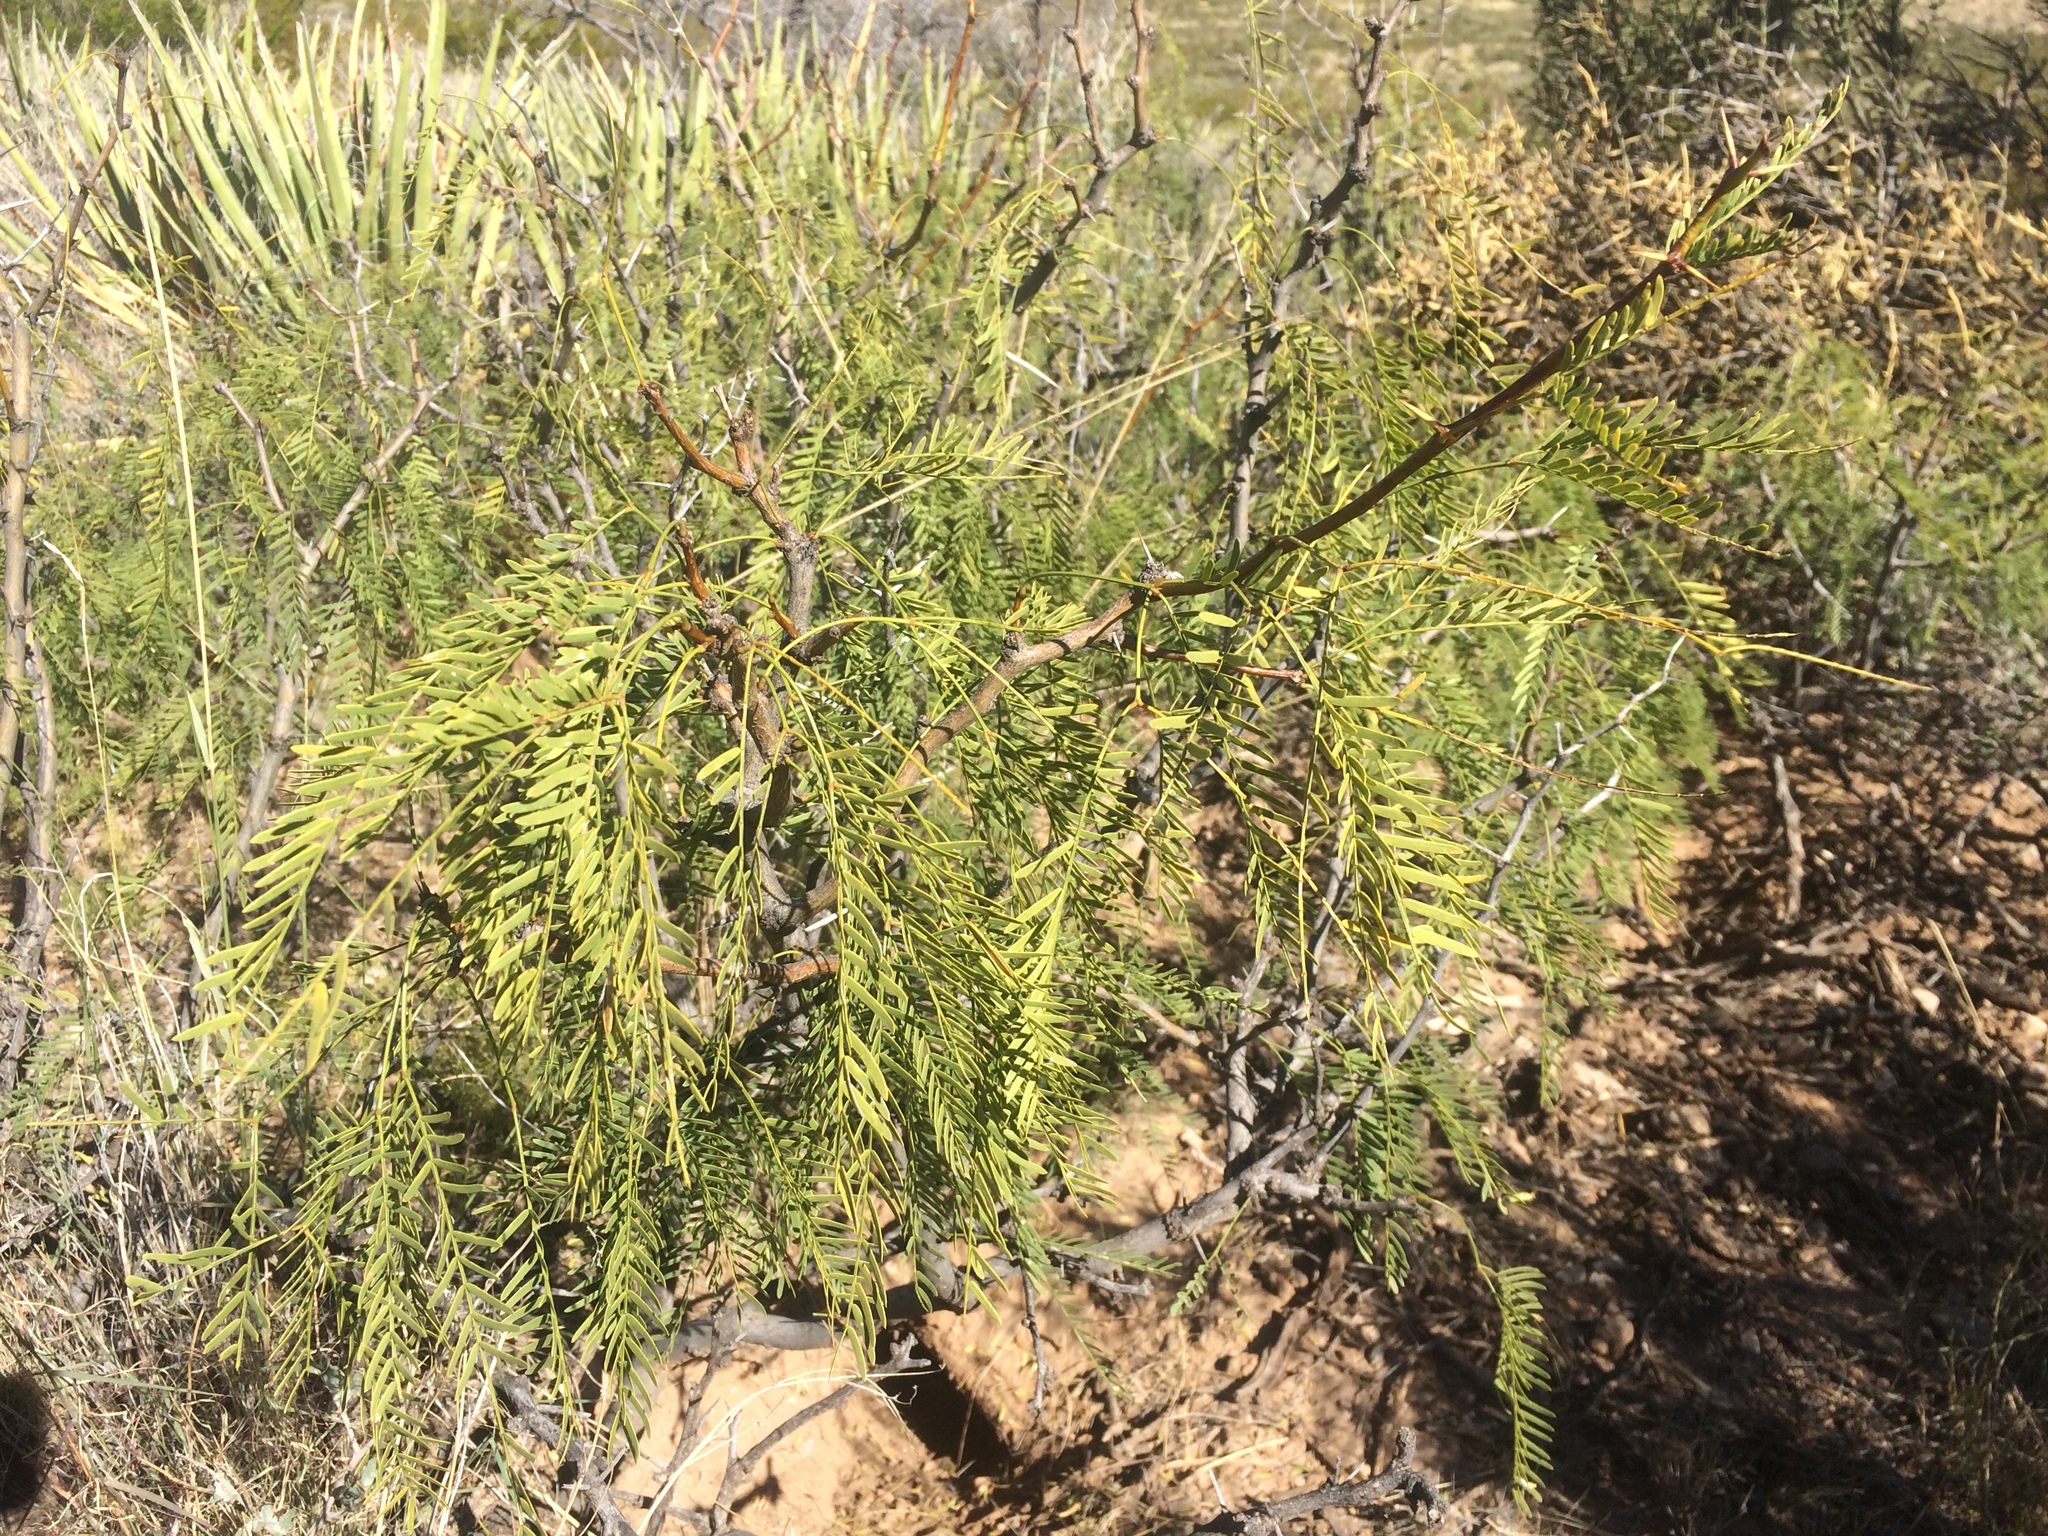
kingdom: Plantae
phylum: Tracheophyta
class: Magnoliopsida
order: Fabales
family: Fabaceae
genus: Prosopis
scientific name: Prosopis glandulosa
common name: Honey mesquite
